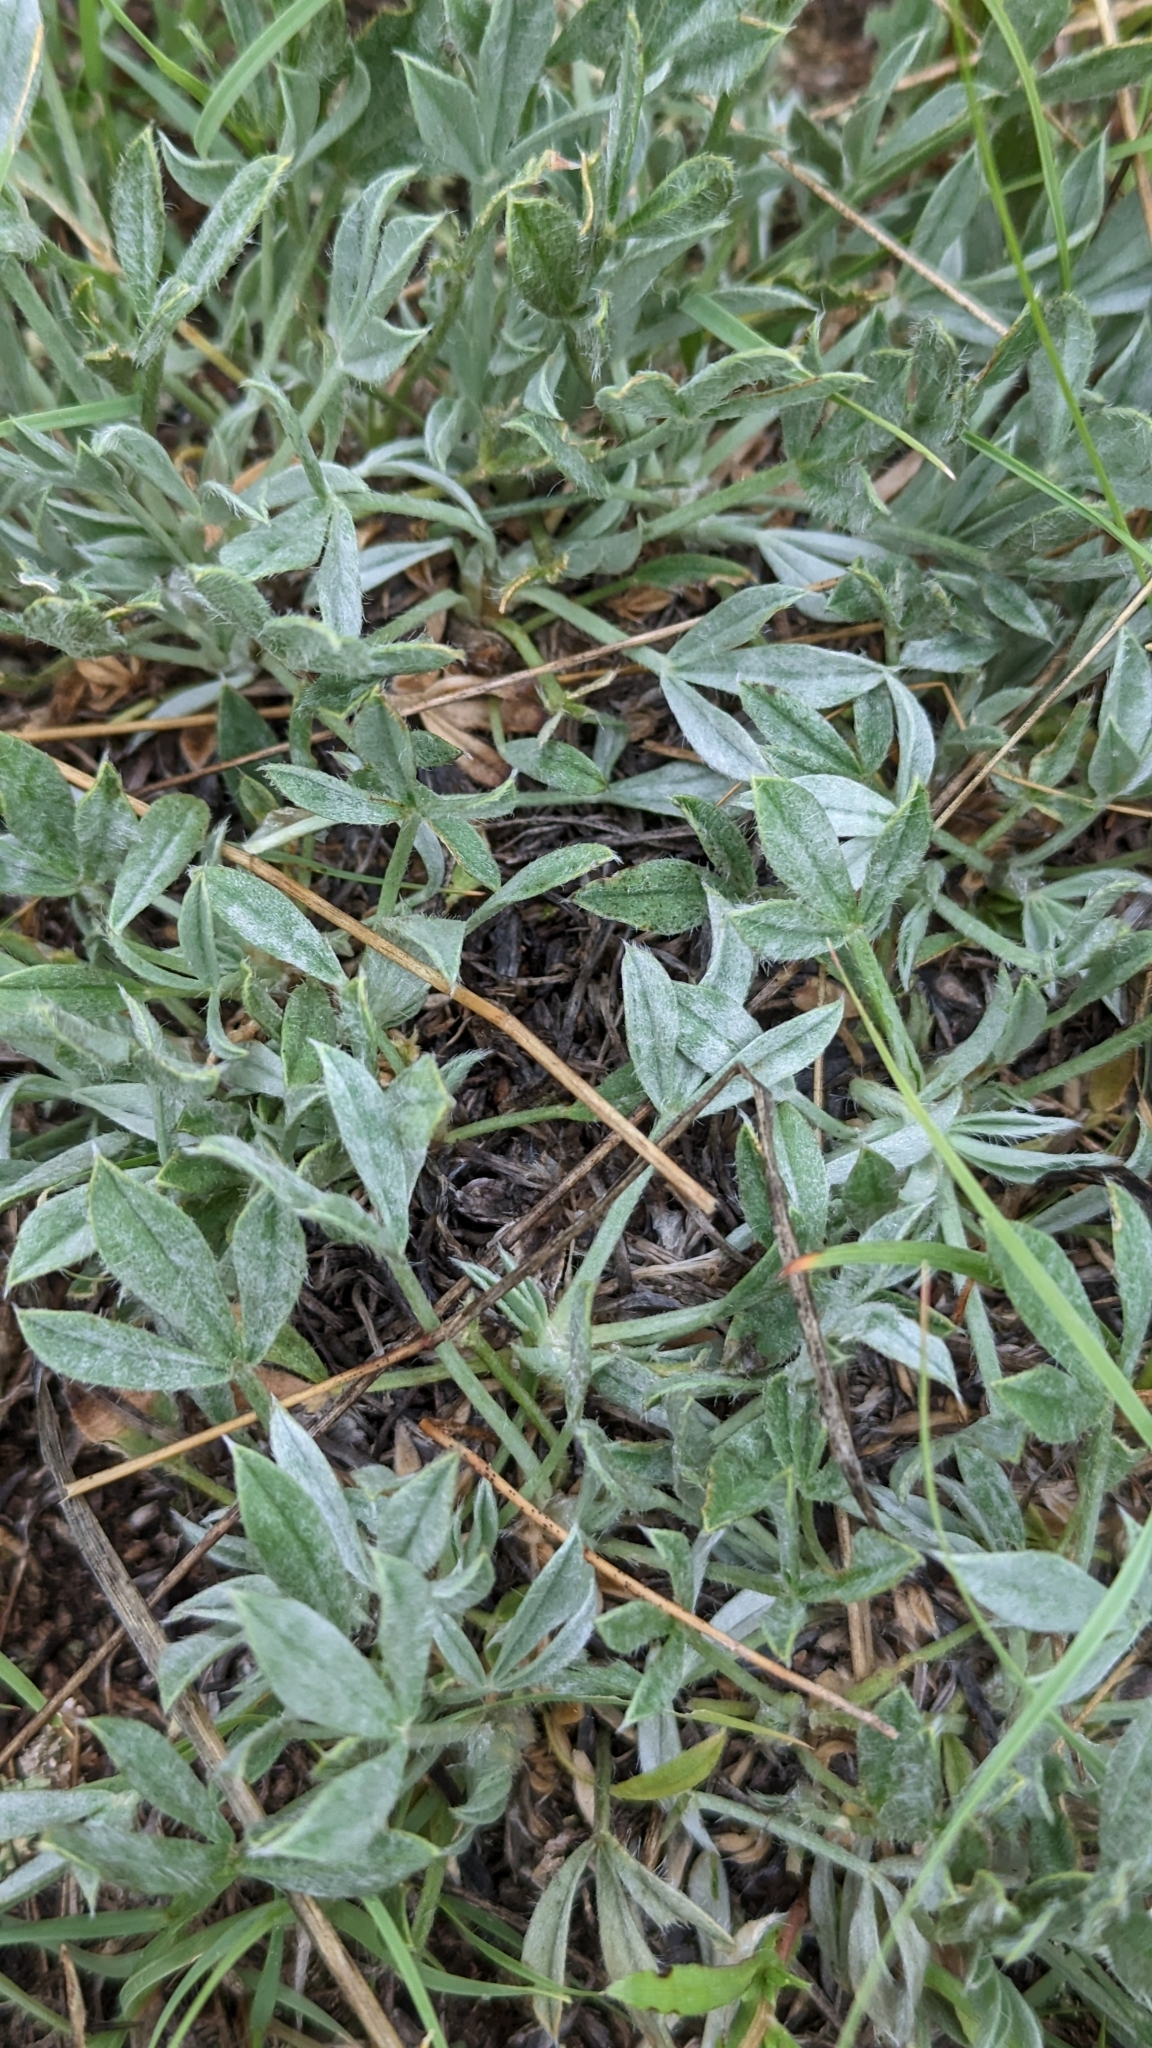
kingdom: Plantae
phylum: Tracheophyta
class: Magnoliopsida
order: Fabales
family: Fabaceae
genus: Astragalus
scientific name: Astragalus gilviflorus
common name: Cushion milk-vetch
